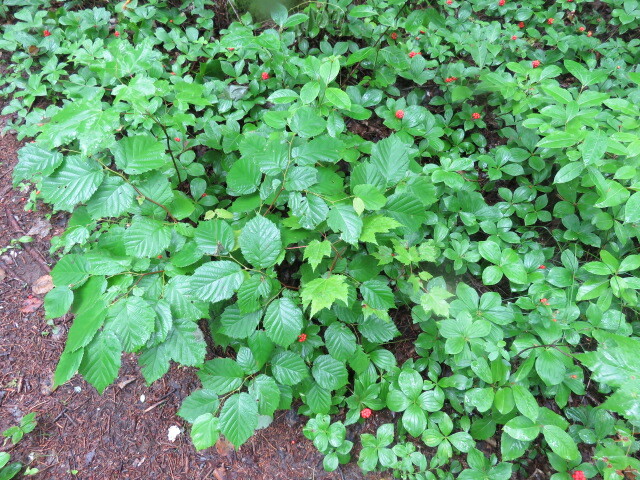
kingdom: Plantae
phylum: Tracheophyta
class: Magnoliopsida
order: Fagales
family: Betulaceae
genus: Corylus
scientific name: Corylus cornuta
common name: Beaked hazel
